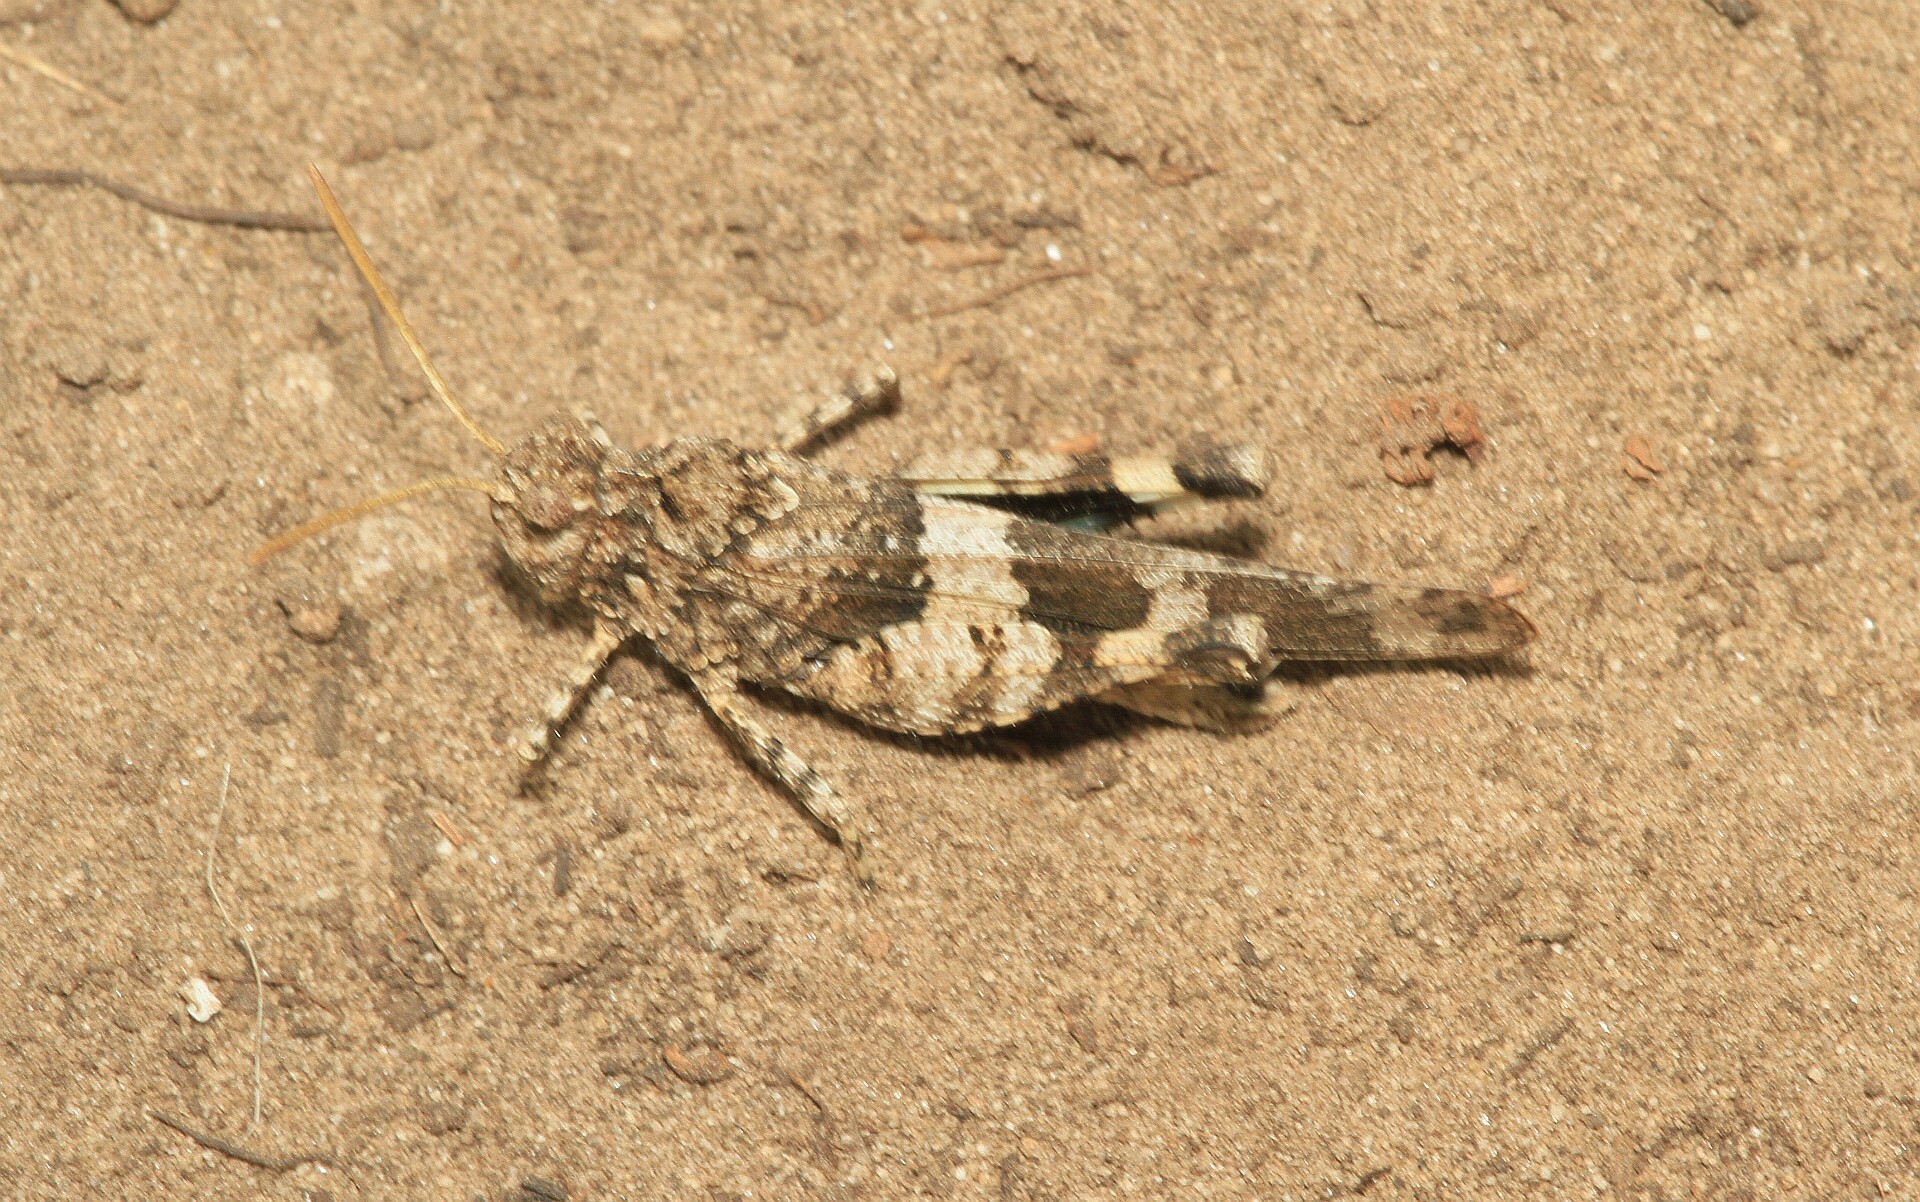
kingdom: Animalia
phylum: Arthropoda
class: Insecta
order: Orthoptera
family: Acrididae
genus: Oedipoda
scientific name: Oedipoda caerulescens
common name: Blue-winged grasshopper
